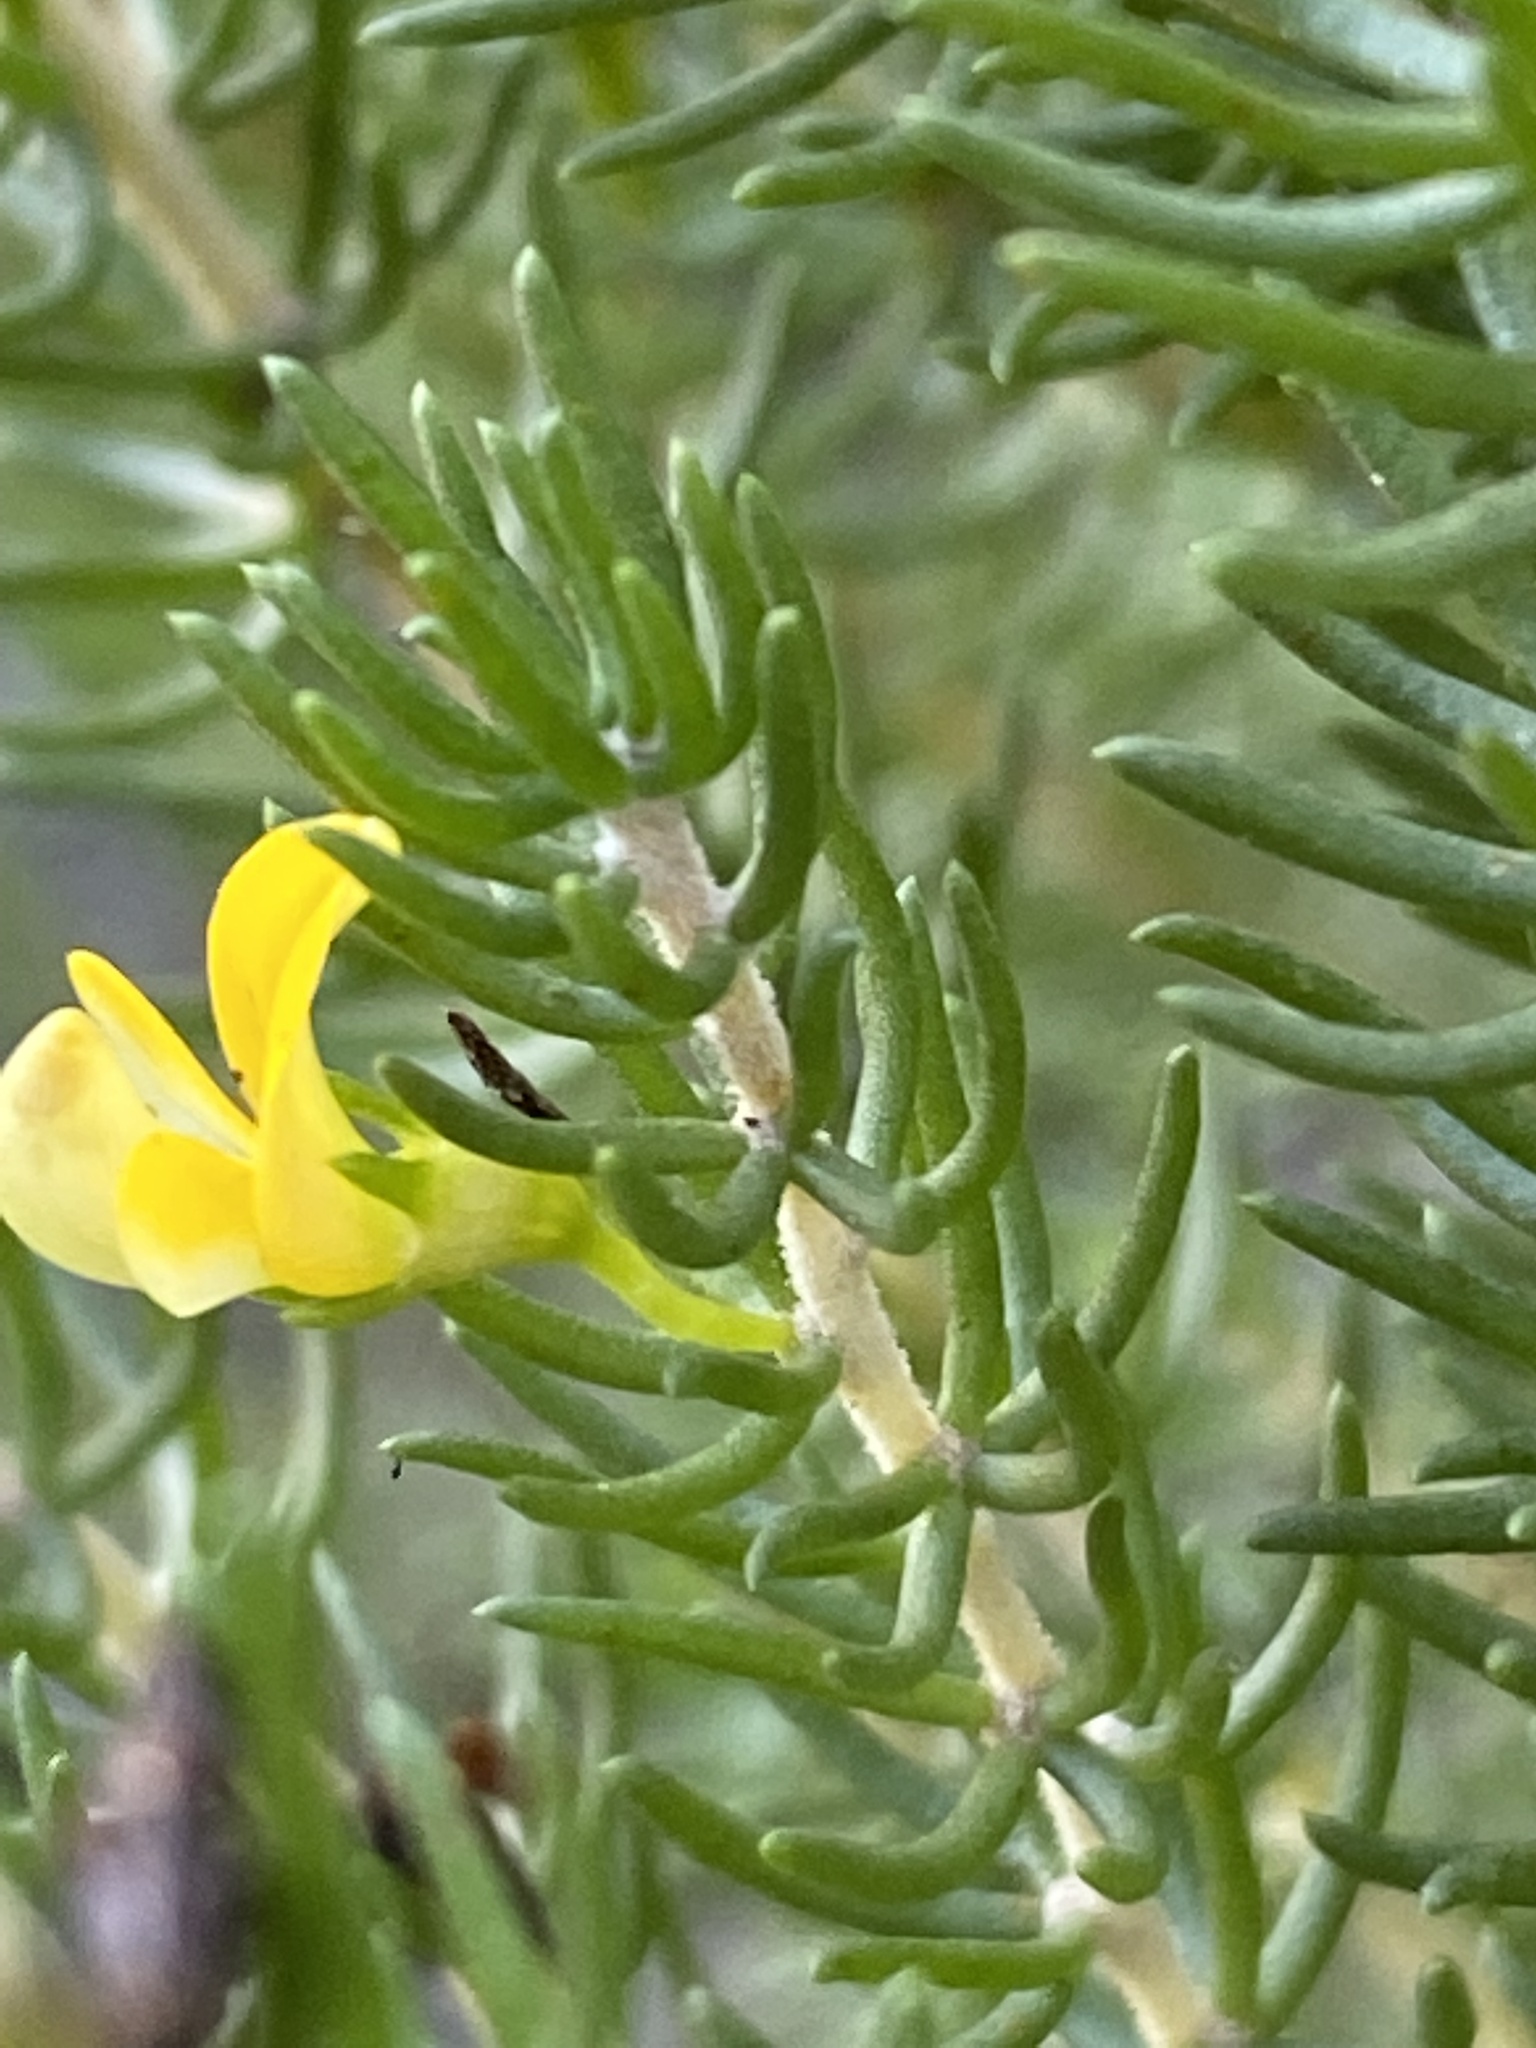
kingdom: Plantae
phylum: Tracheophyta
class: Magnoliopsida
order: Fabales
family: Fabaceae
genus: Aspalathus
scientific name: Aspalathus subtingens
